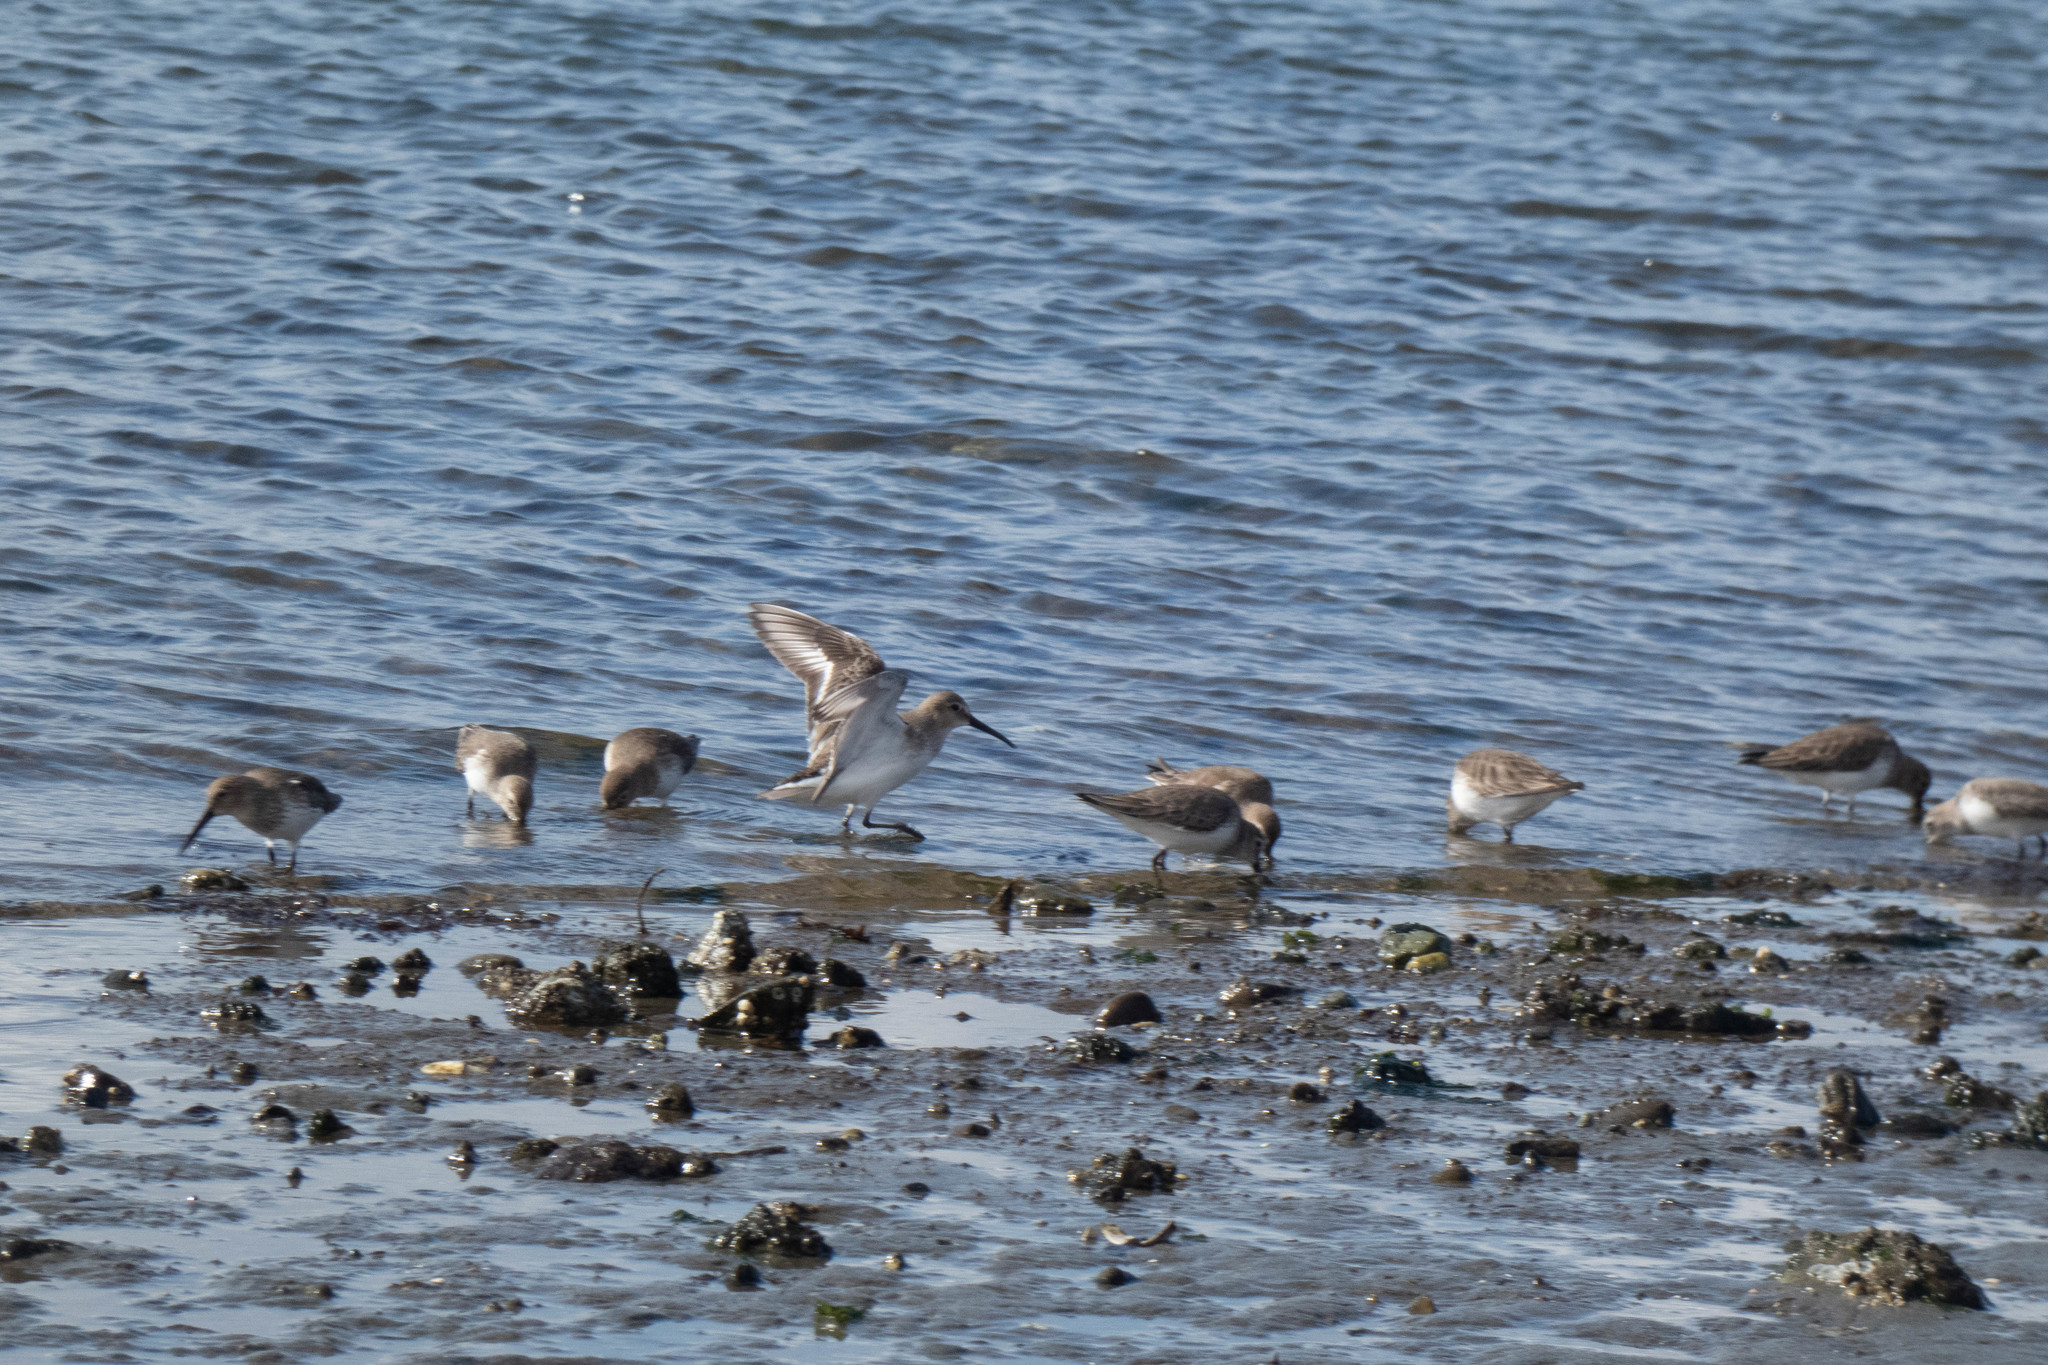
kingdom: Animalia
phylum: Chordata
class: Aves
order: Charadriiformes
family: Scolopacidae
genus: Calidris
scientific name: Calidris alpina
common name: Dunlin
